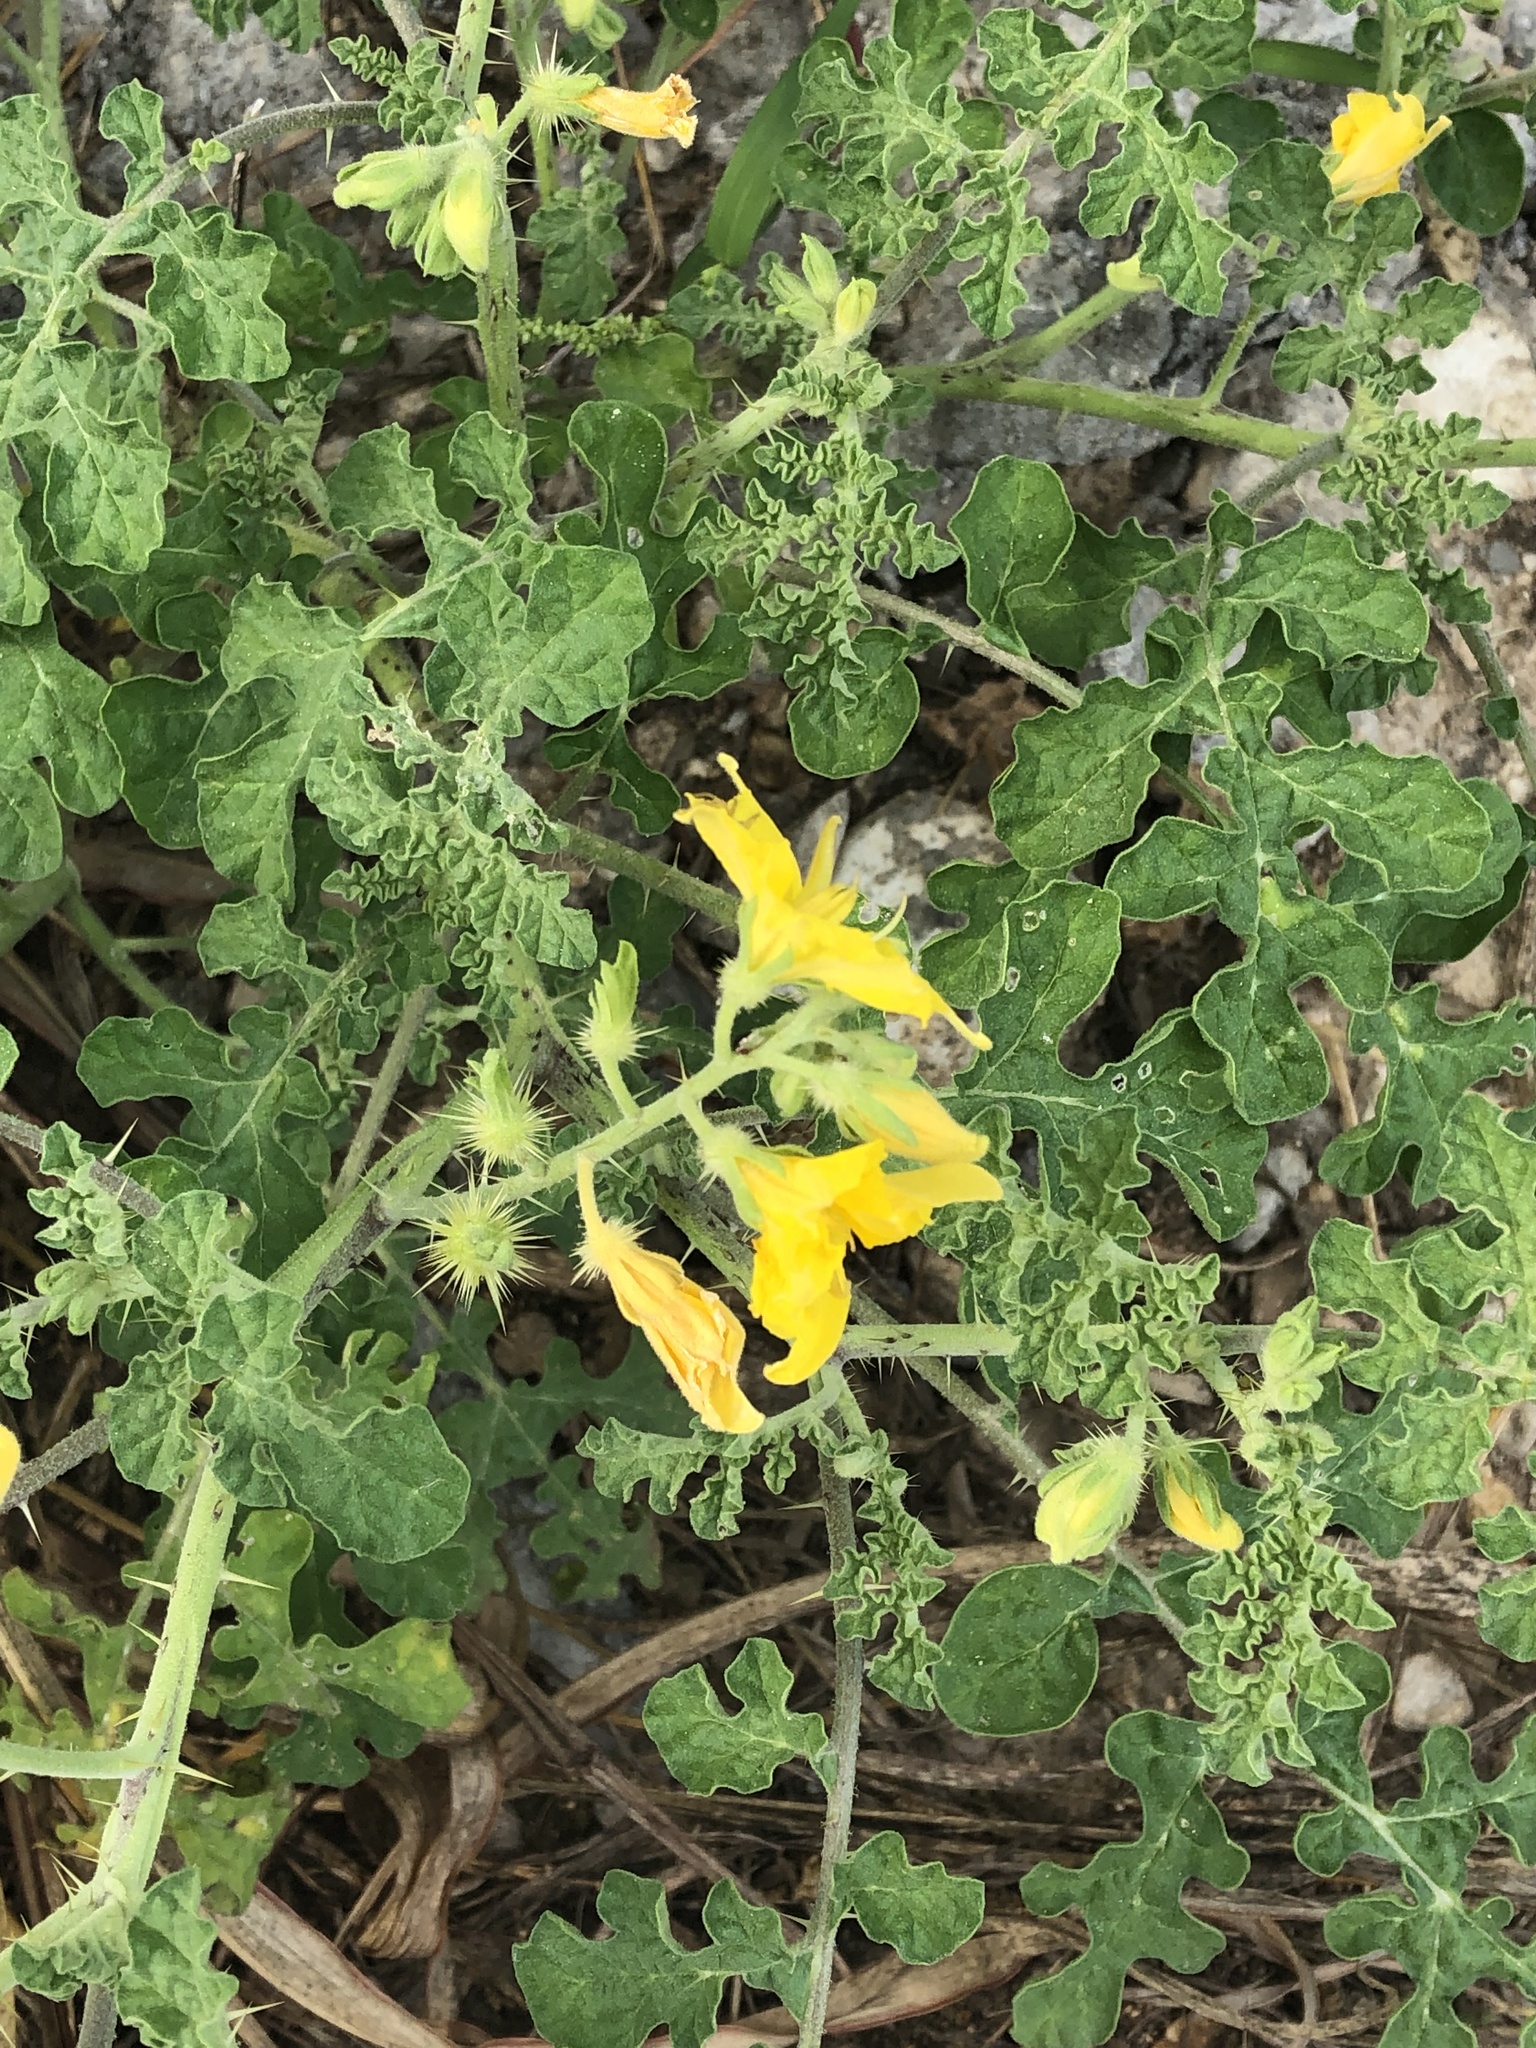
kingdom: Plantae
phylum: Tracheophyta
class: Magnoliopsida
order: Solanales
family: Solanaceae
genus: Solanum
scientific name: Solanum angustifolium
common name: Buffalobur nightshade
